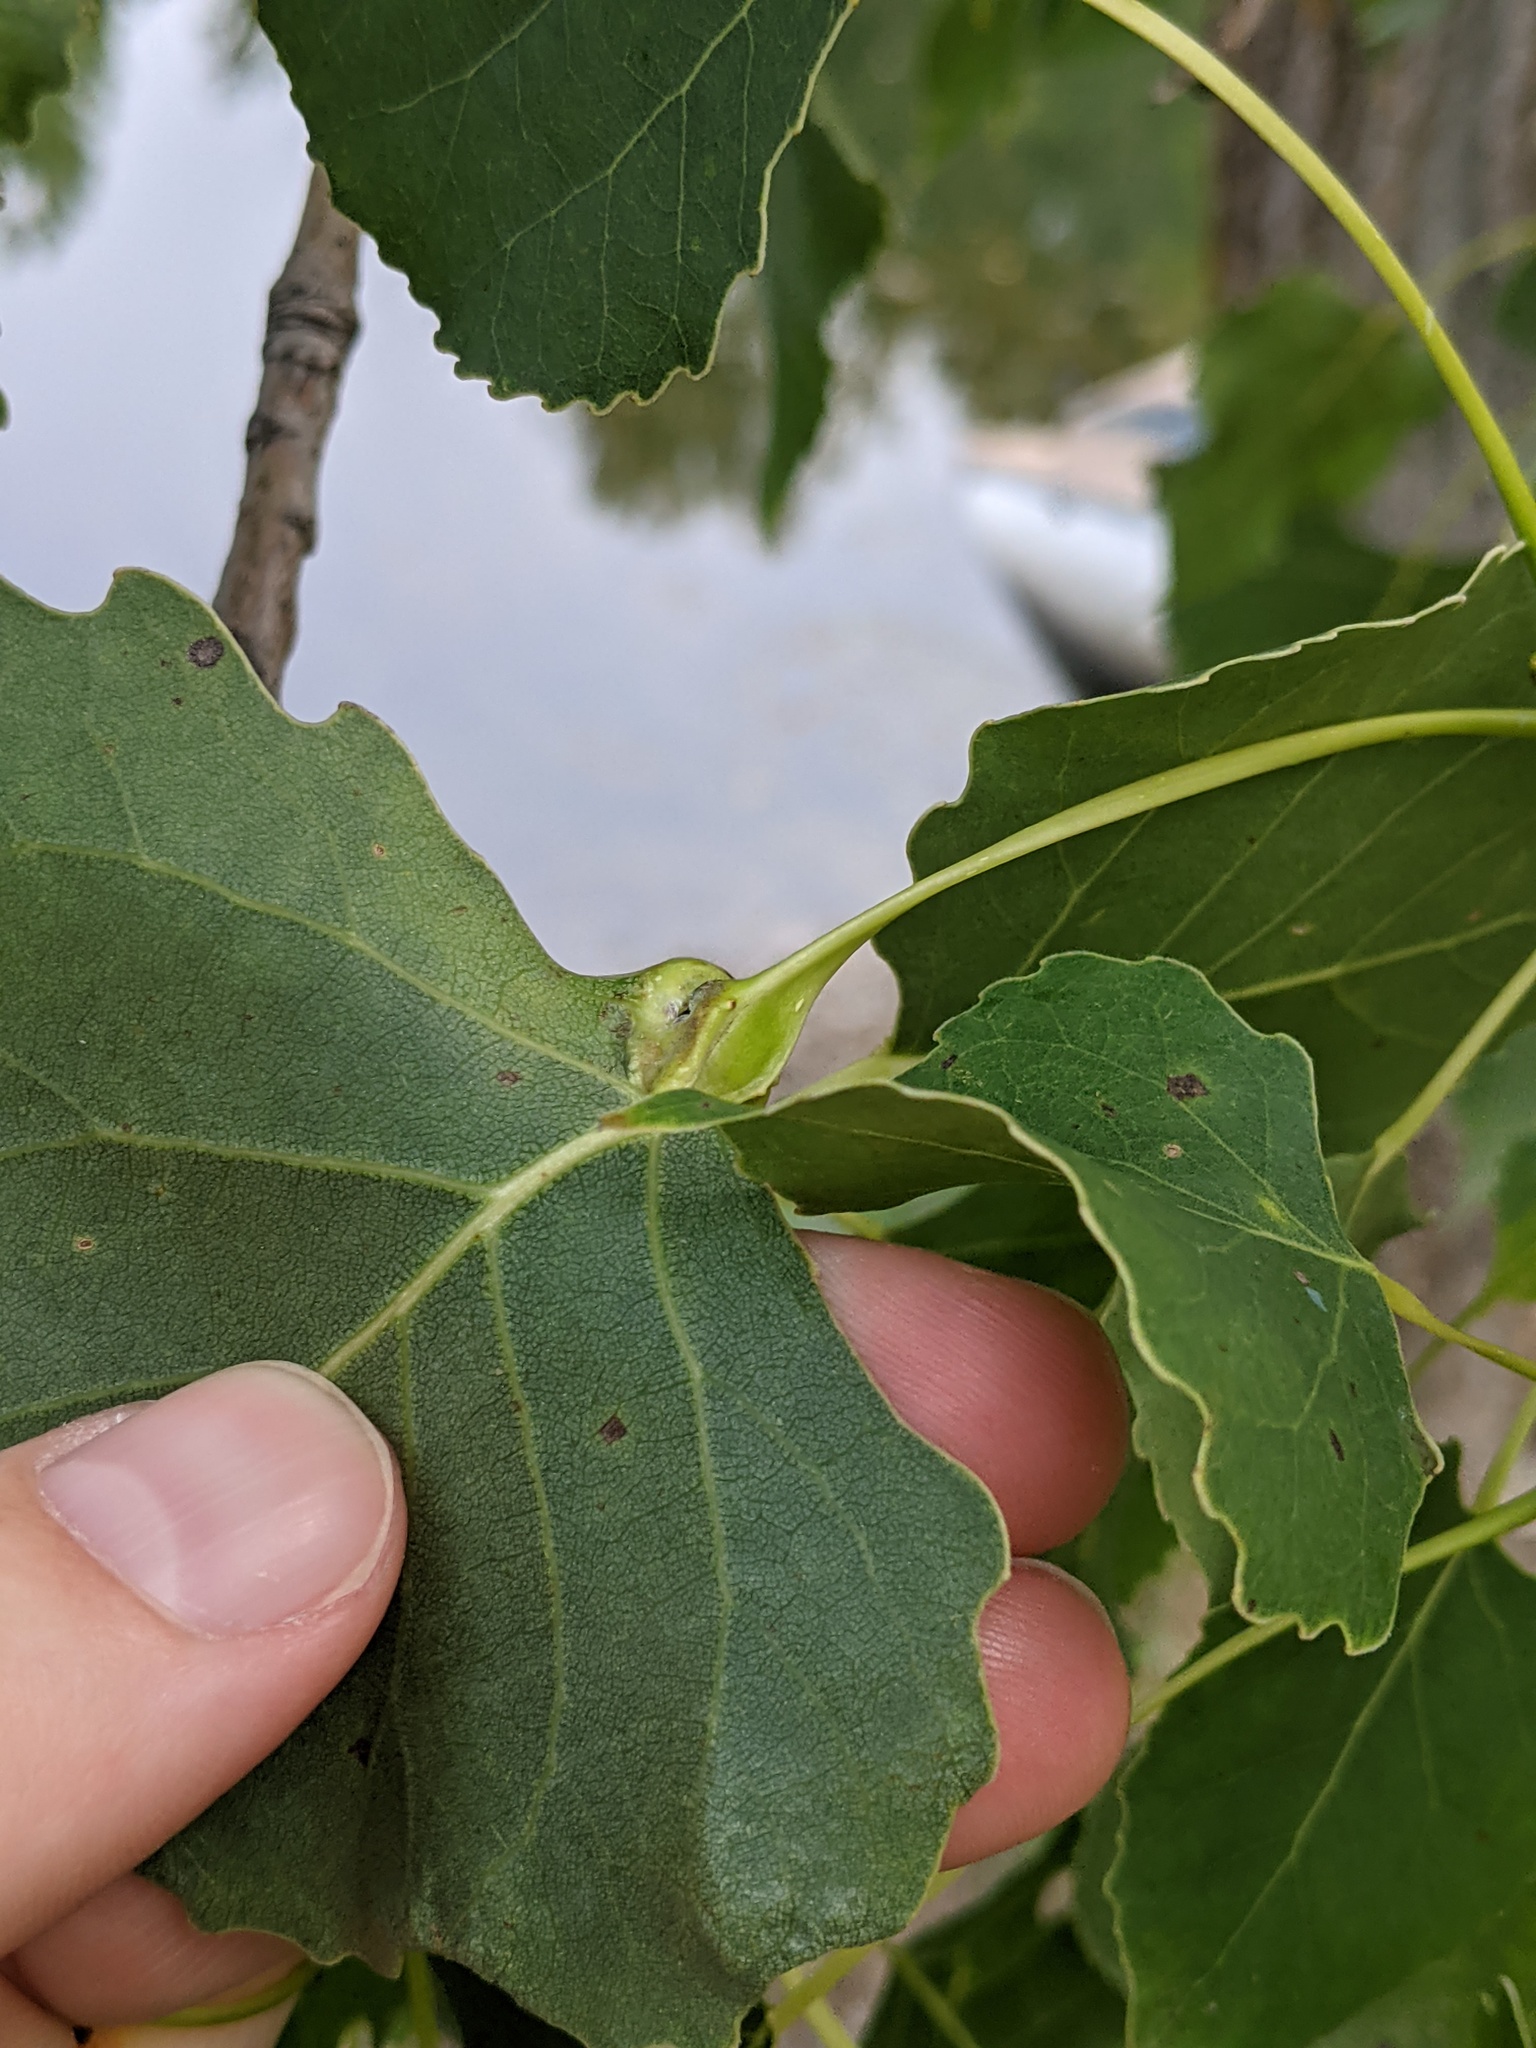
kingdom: Animalia
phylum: Arthropoda
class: Insecta
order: Hemiptera
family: Aphididae
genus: Pemphigus
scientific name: Pemphigus populicaulis
